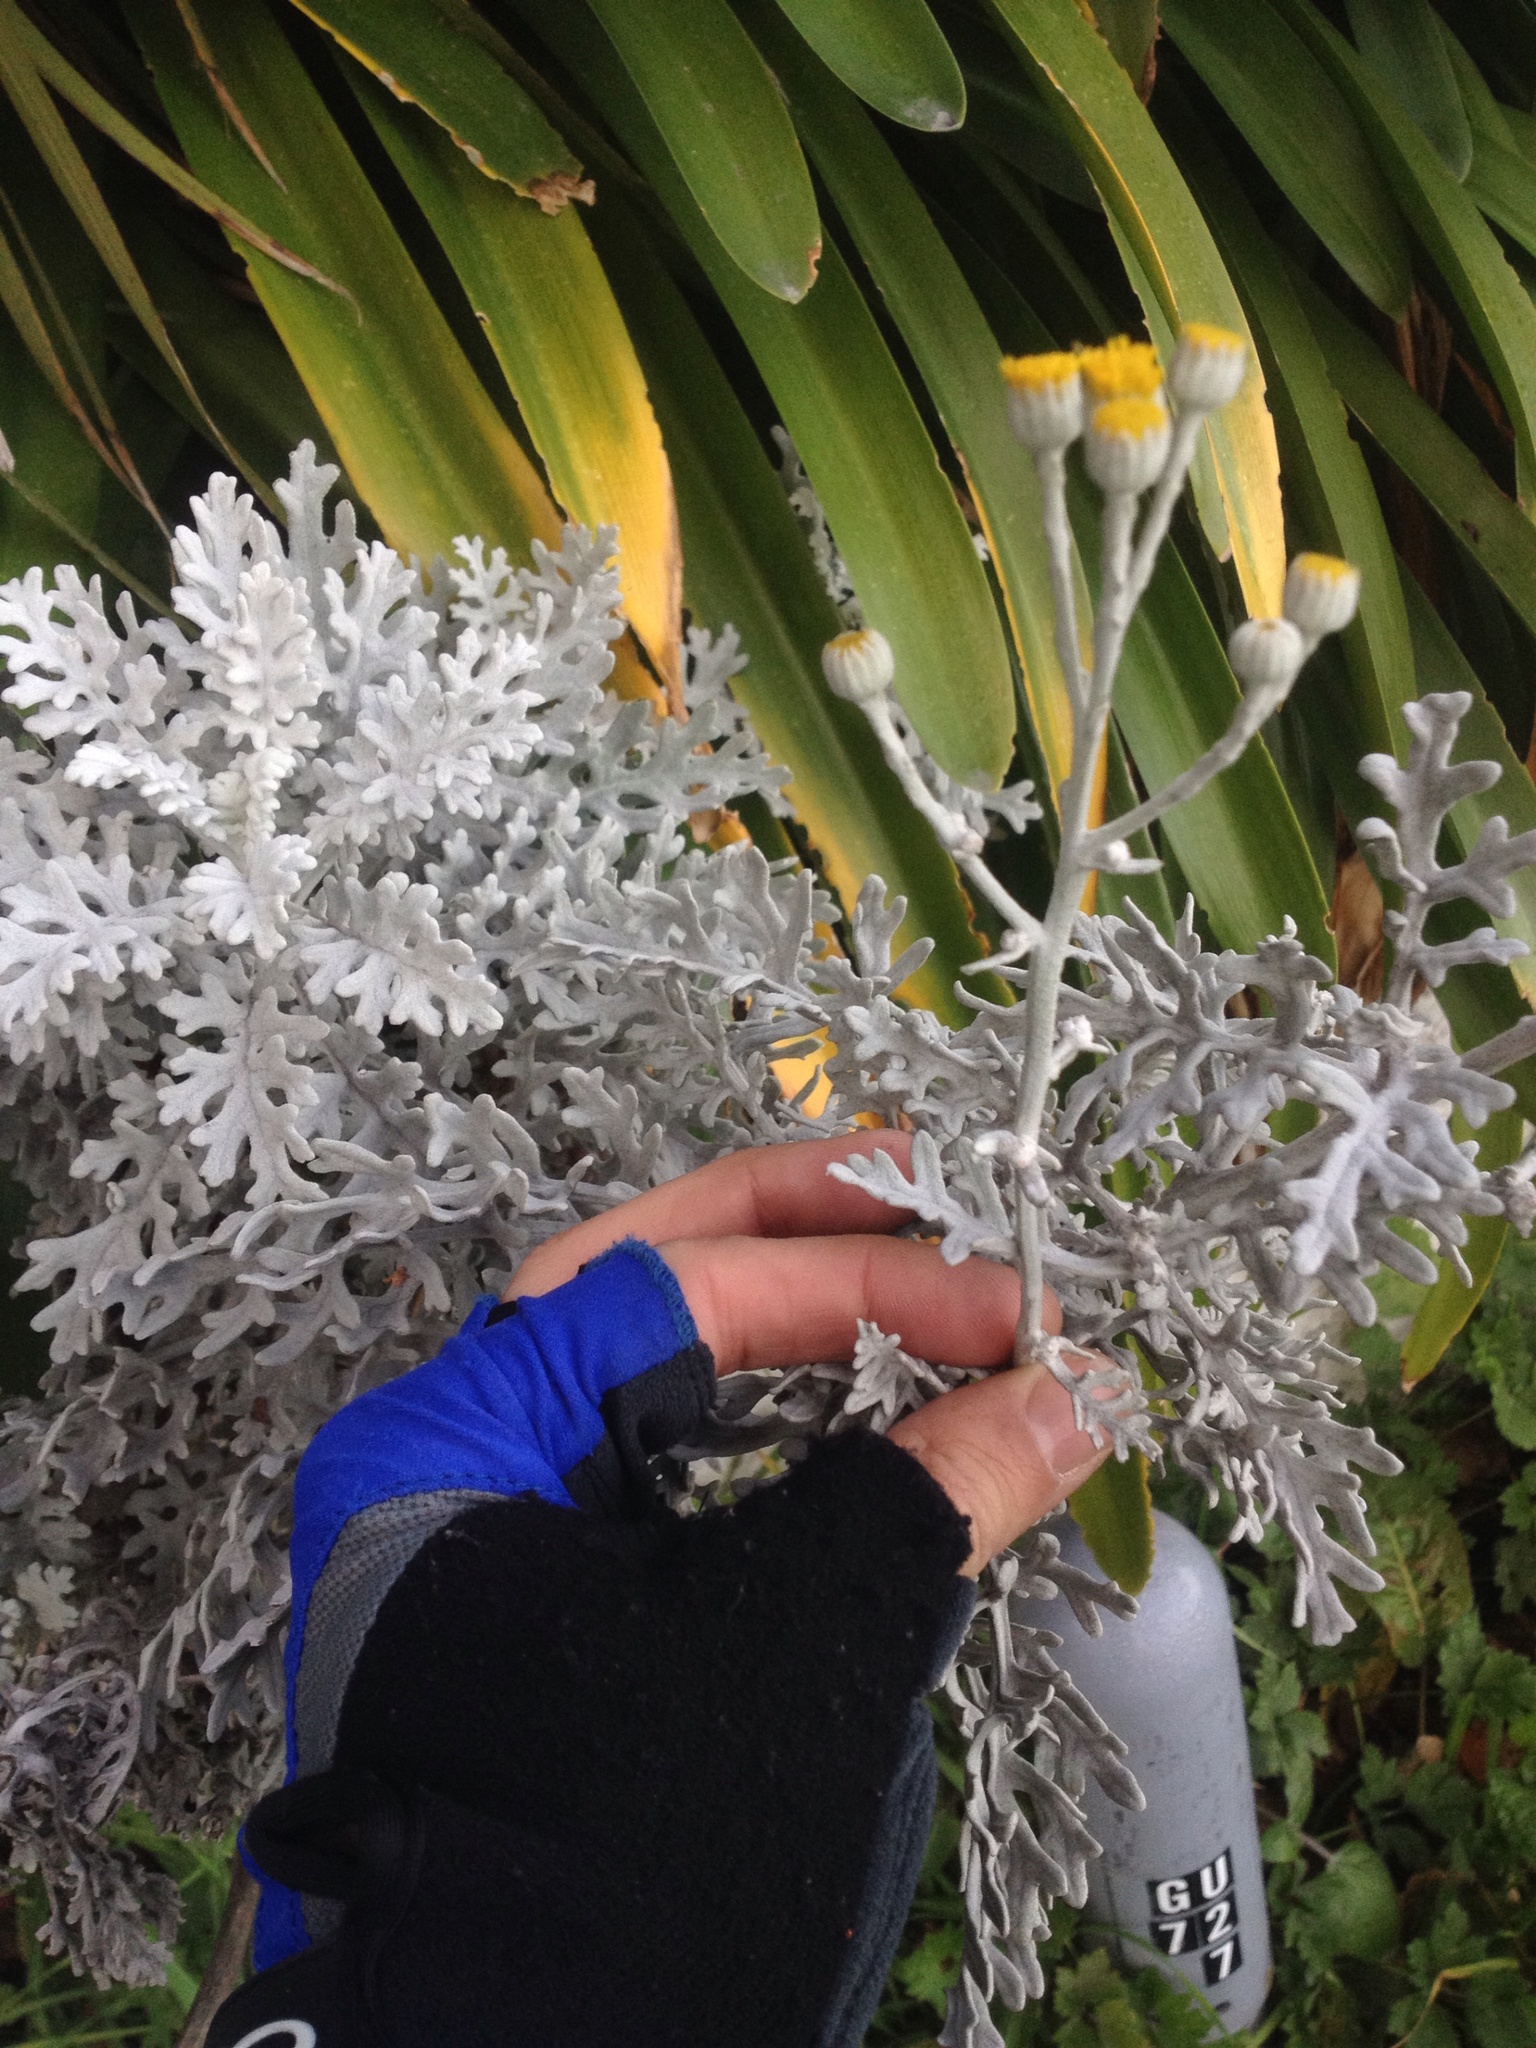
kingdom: Plantae
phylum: Tracheophyta
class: Magnoliopsida
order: Asterales
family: Asteraceae
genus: Jacobaea
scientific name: Jacobaea maritima
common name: Silver ragwort
